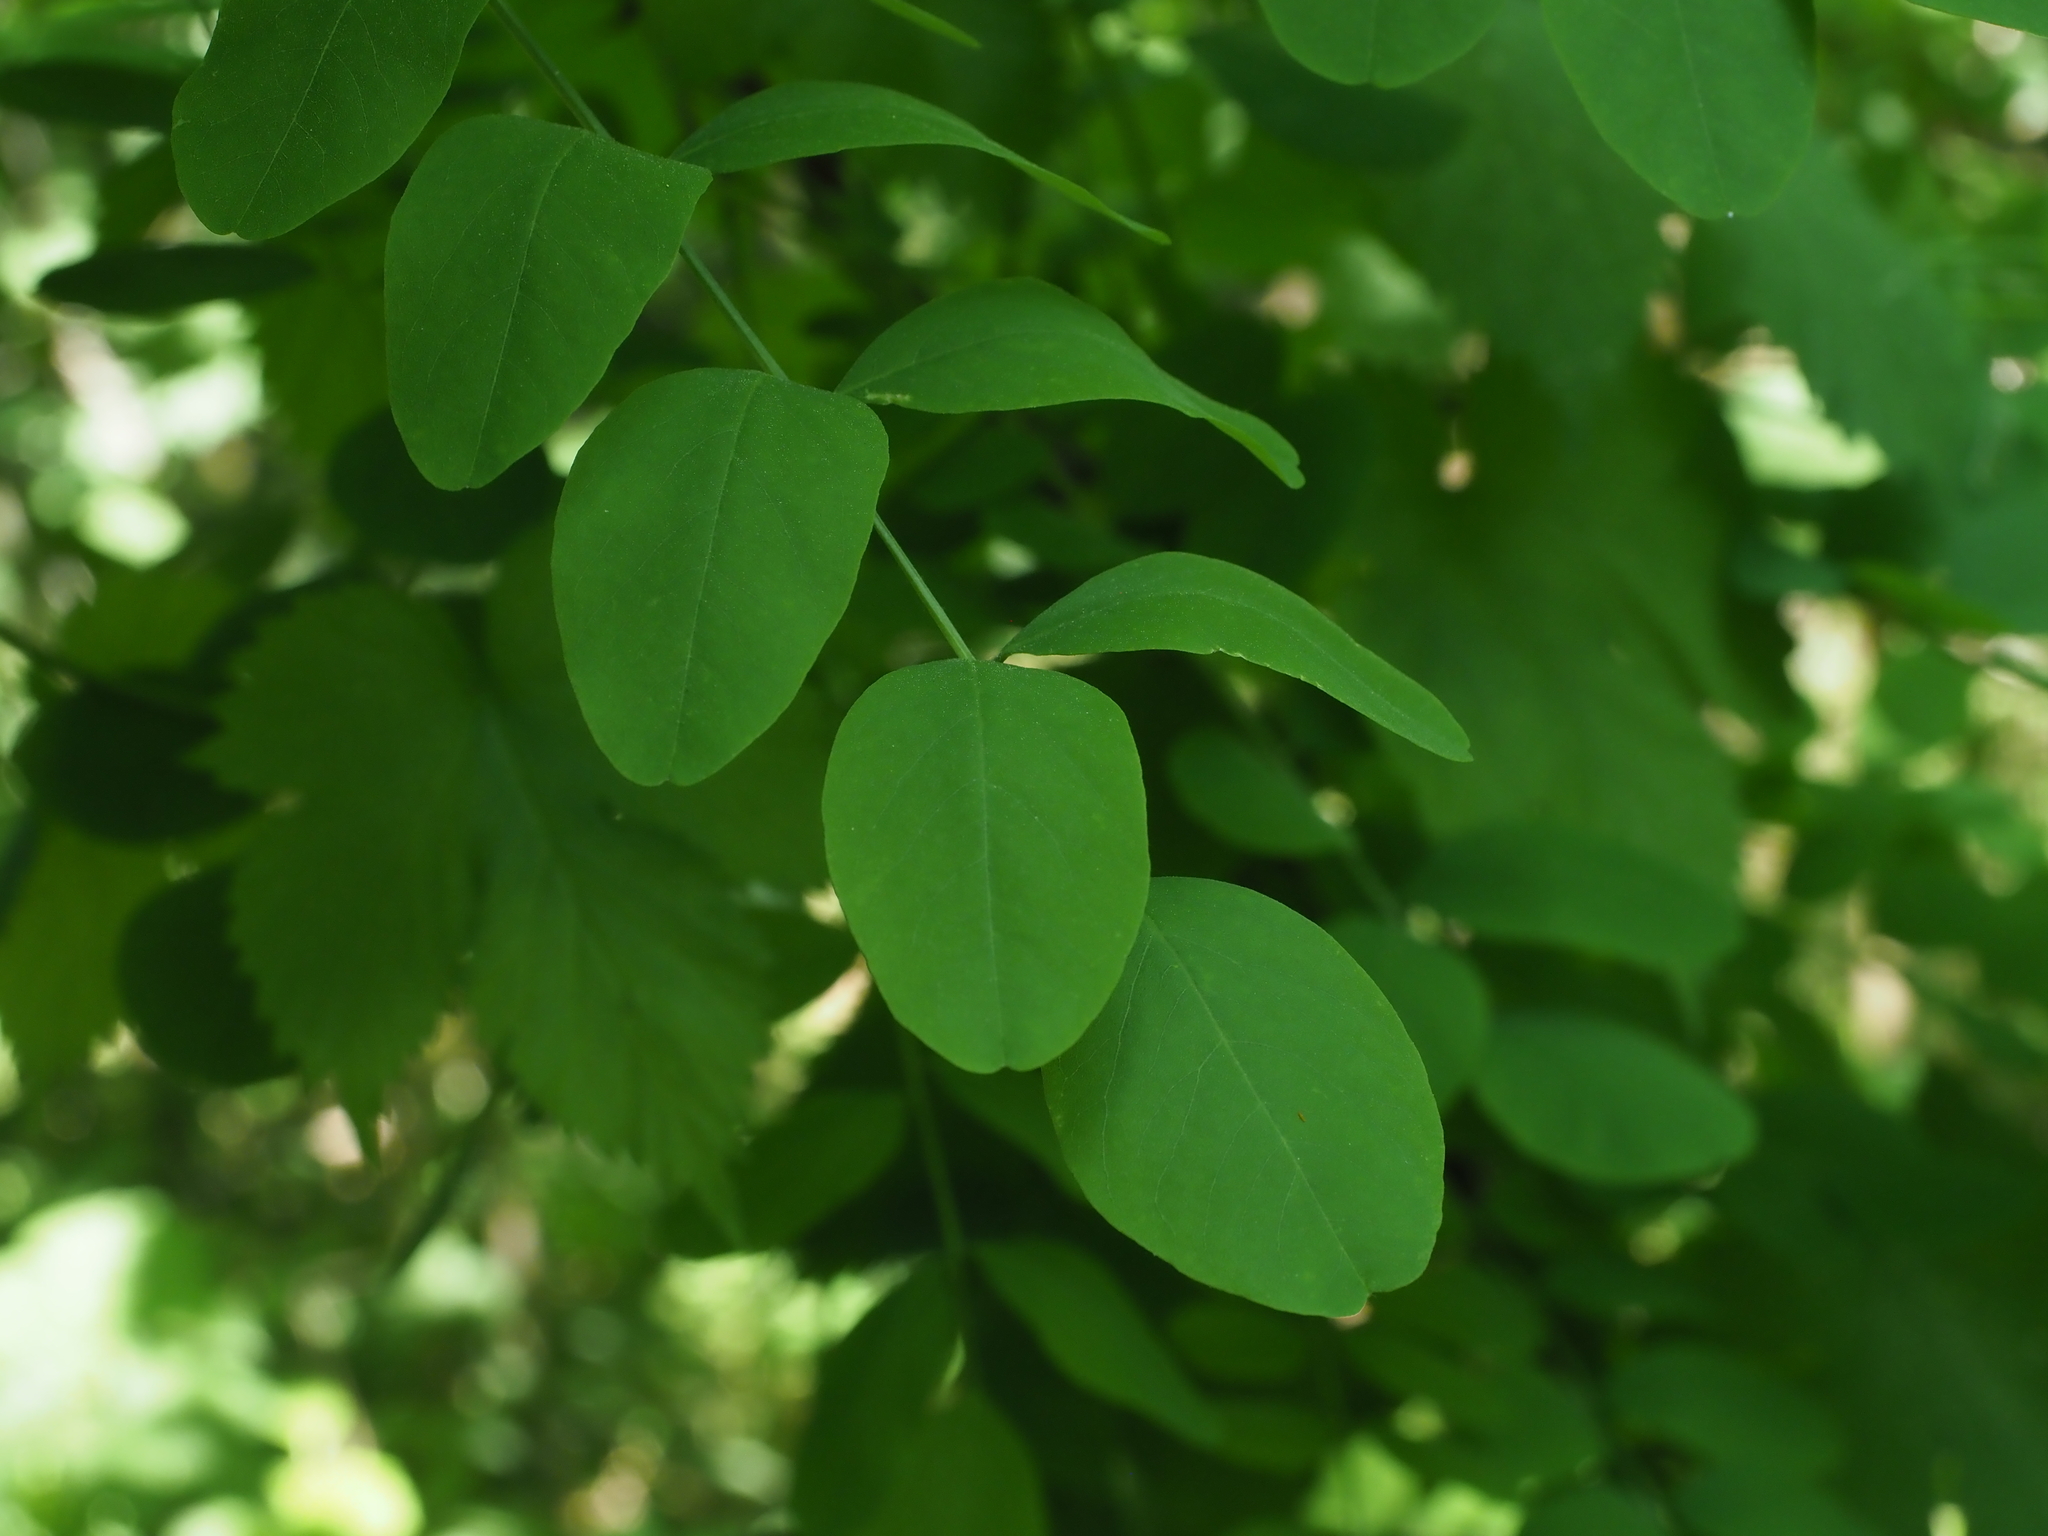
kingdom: Plantae
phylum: Tracheophyta
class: Magnoliopsida
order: Fabales
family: Fabaceae
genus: Robinia
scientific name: Robinia pseudoacacia
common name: Black locust
